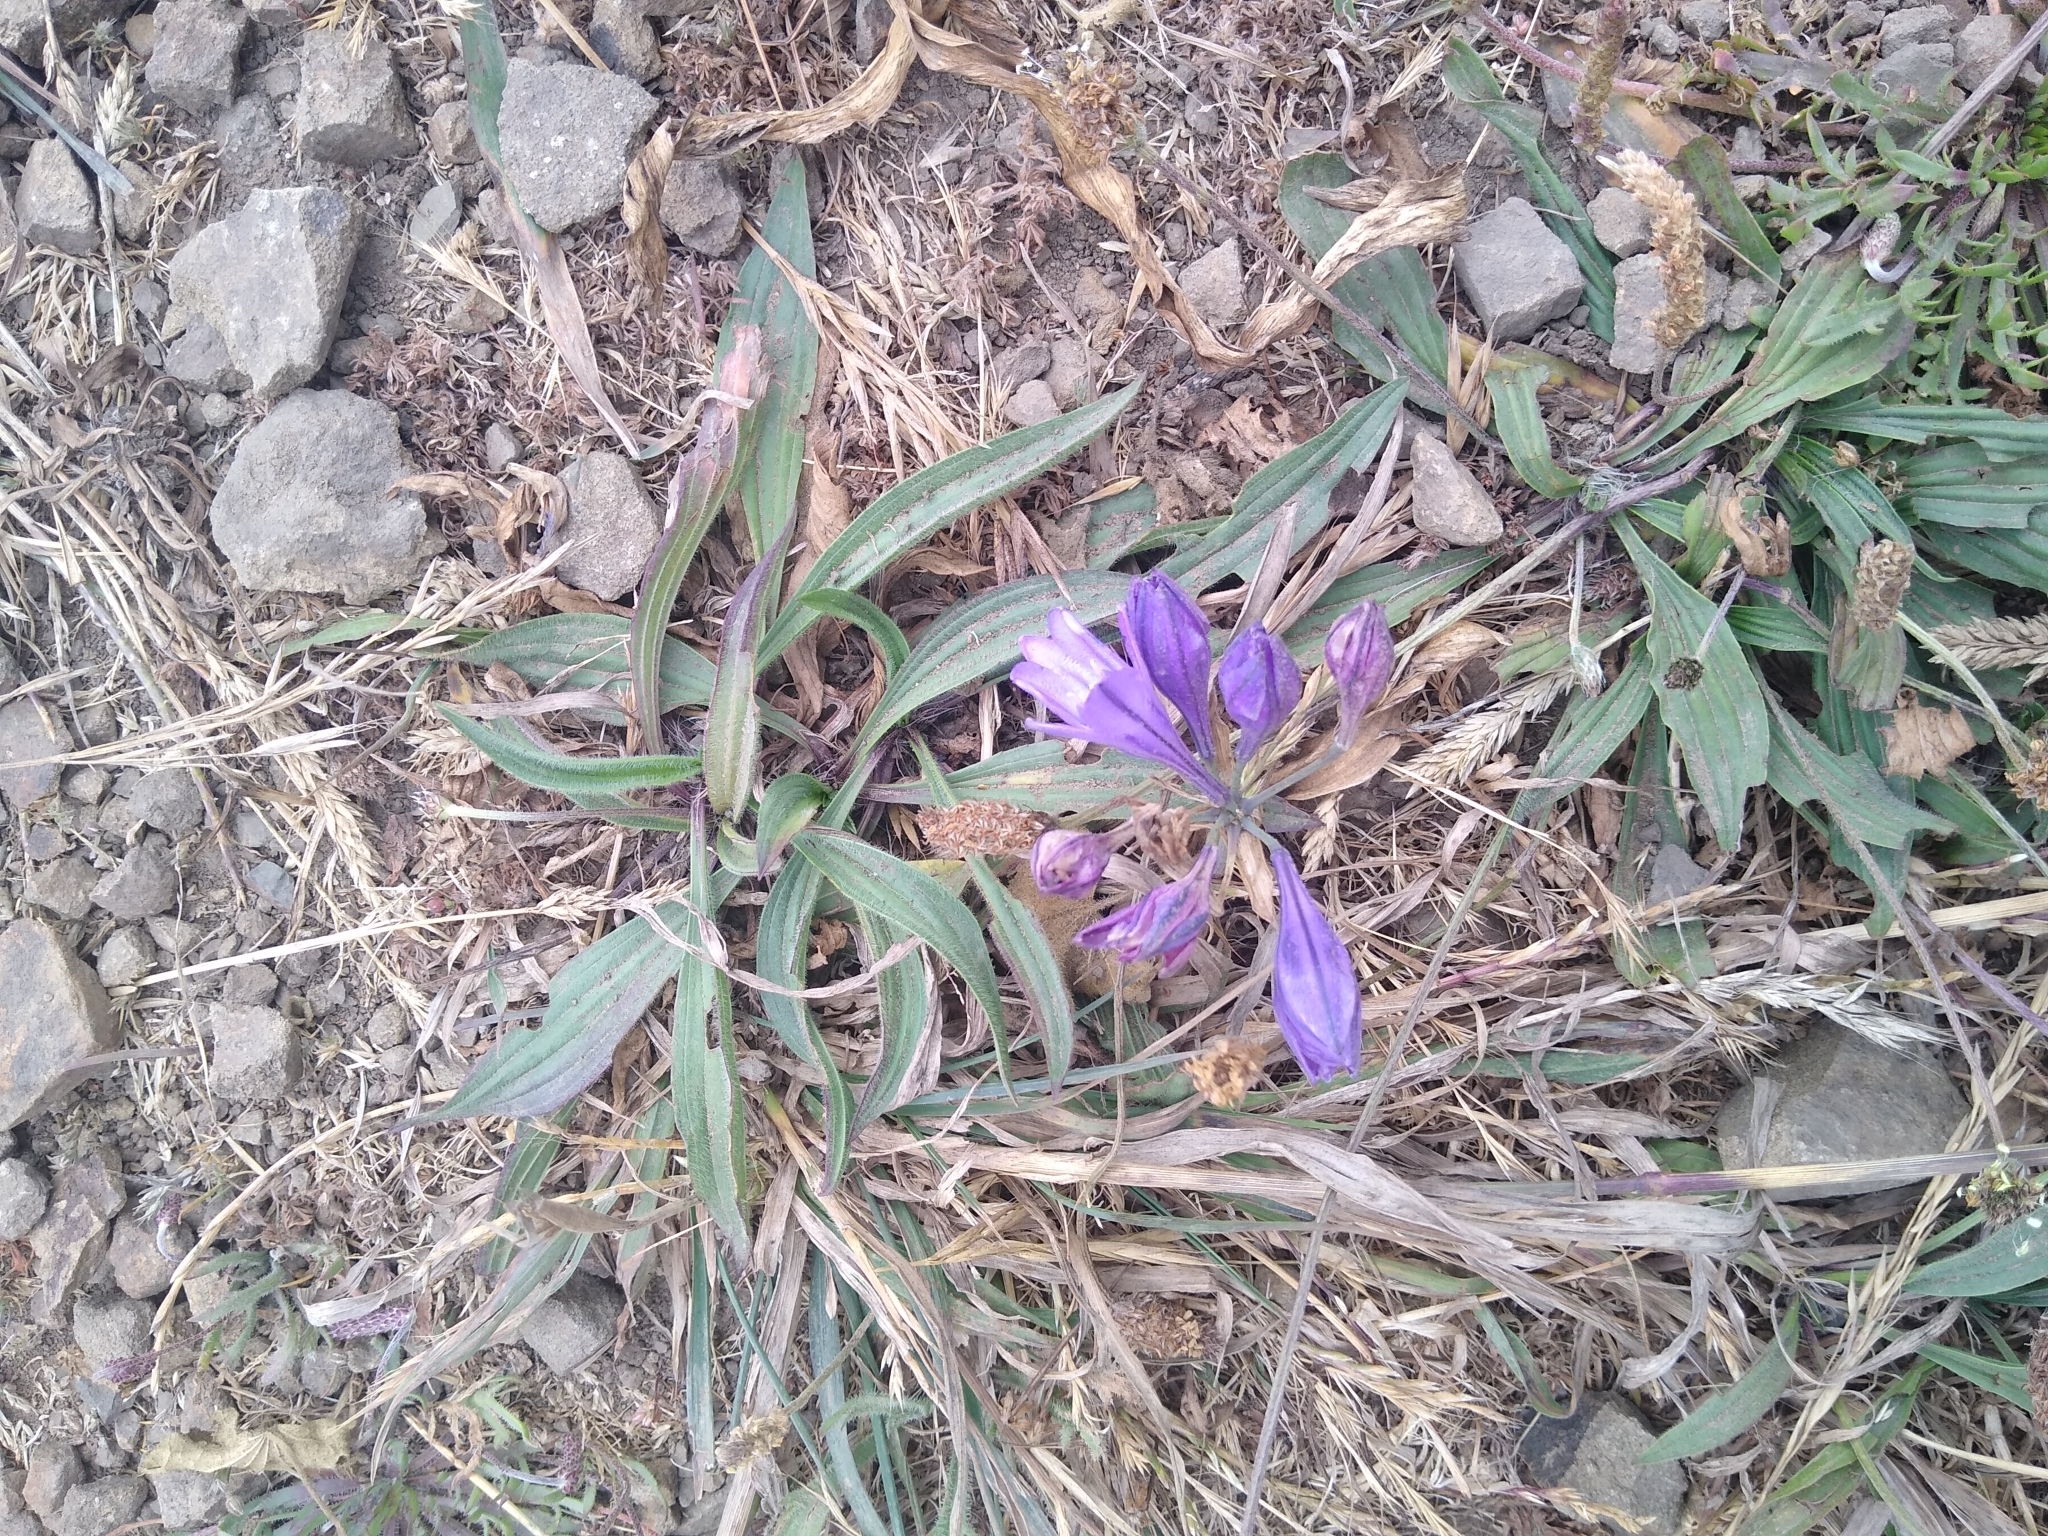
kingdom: Plantae
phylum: Tracheophyta
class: Liliopsida
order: Asparagales
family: Asparagaceae
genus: Triteleia
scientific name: Triteleia laxa
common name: Triplet-lily
